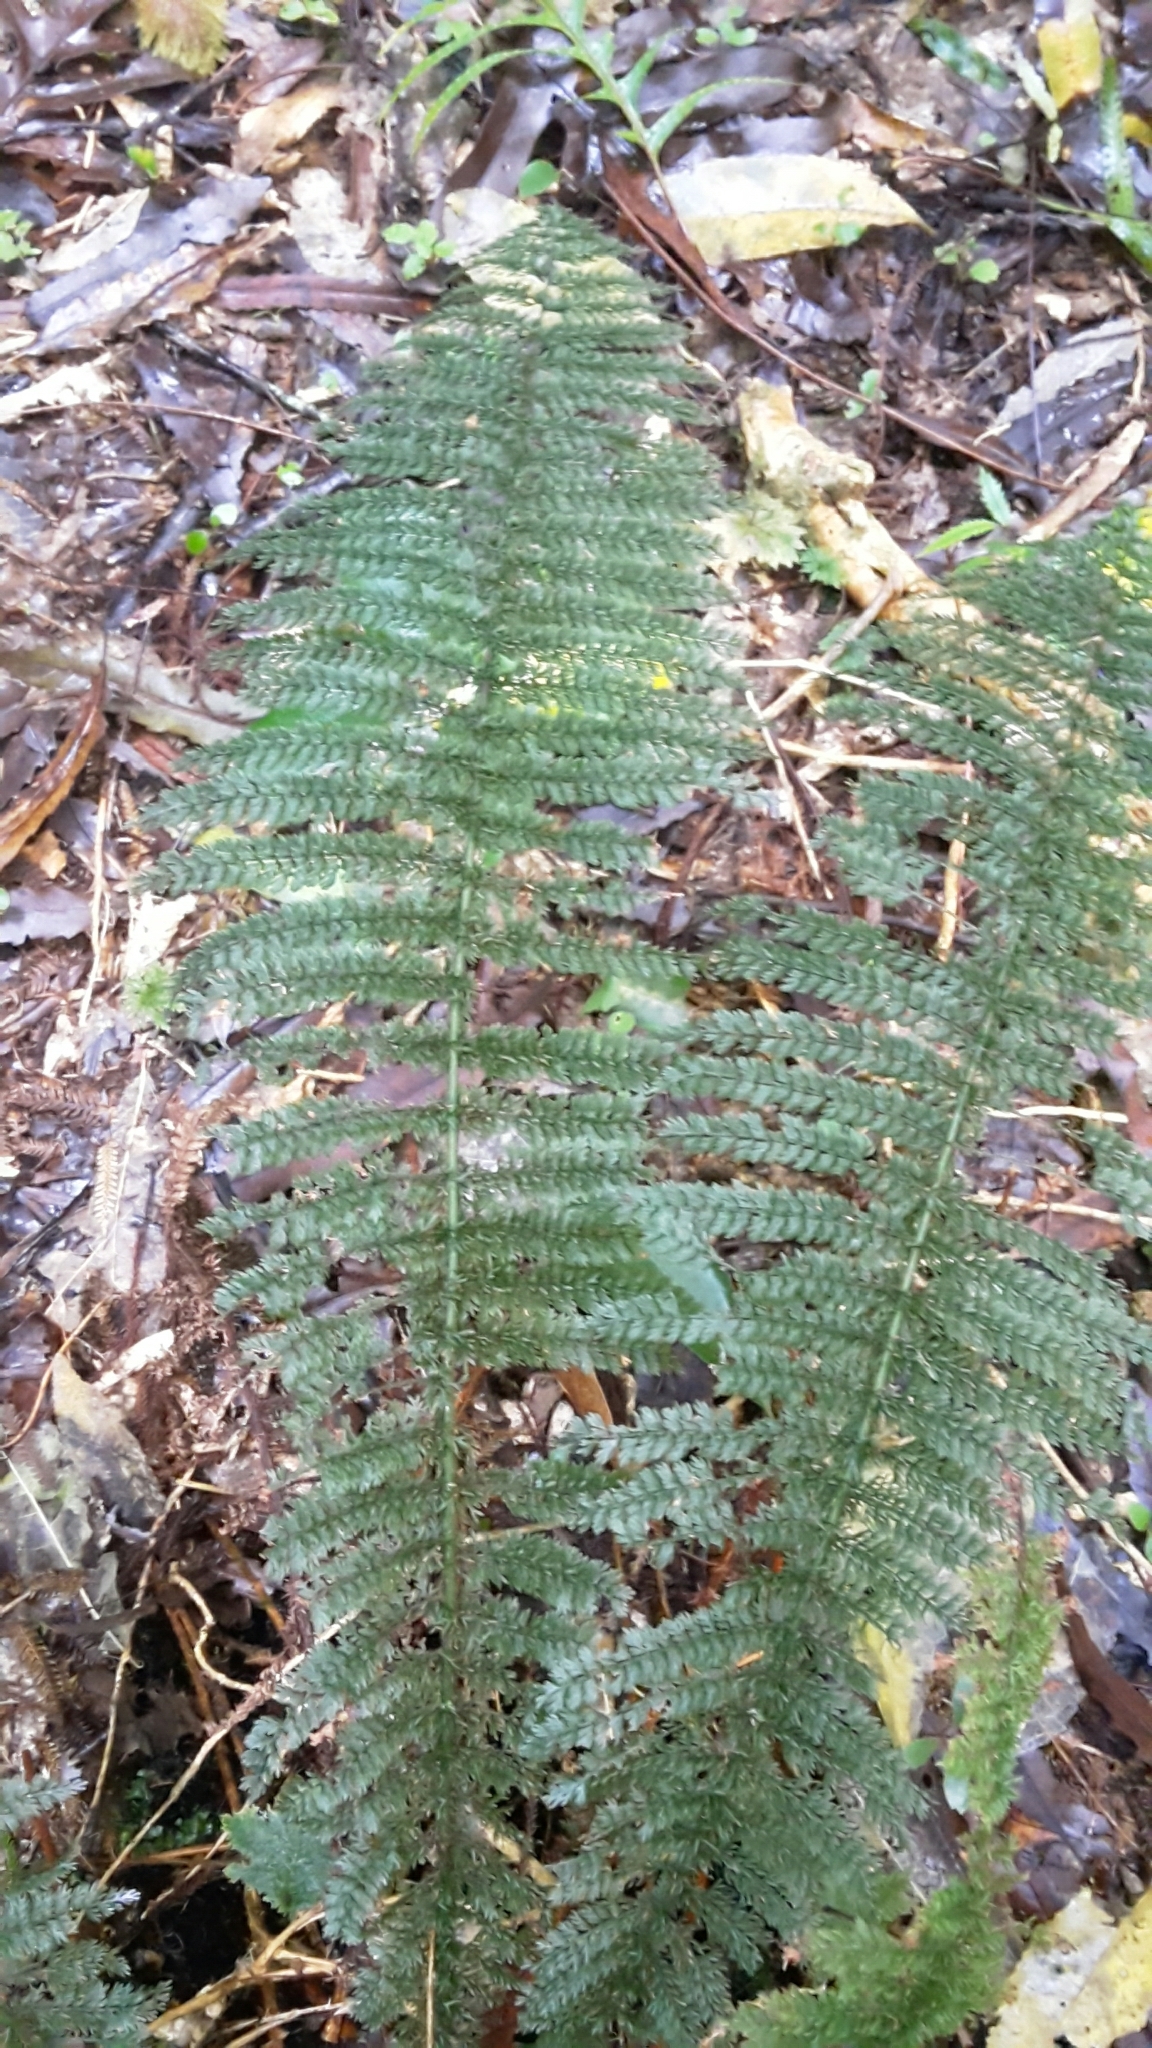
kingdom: Plantae
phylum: Tracheophyta
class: Polypodiopsida
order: Osmundales
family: Osmundaceae
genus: Leptopteris
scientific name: Leptopteris superba
